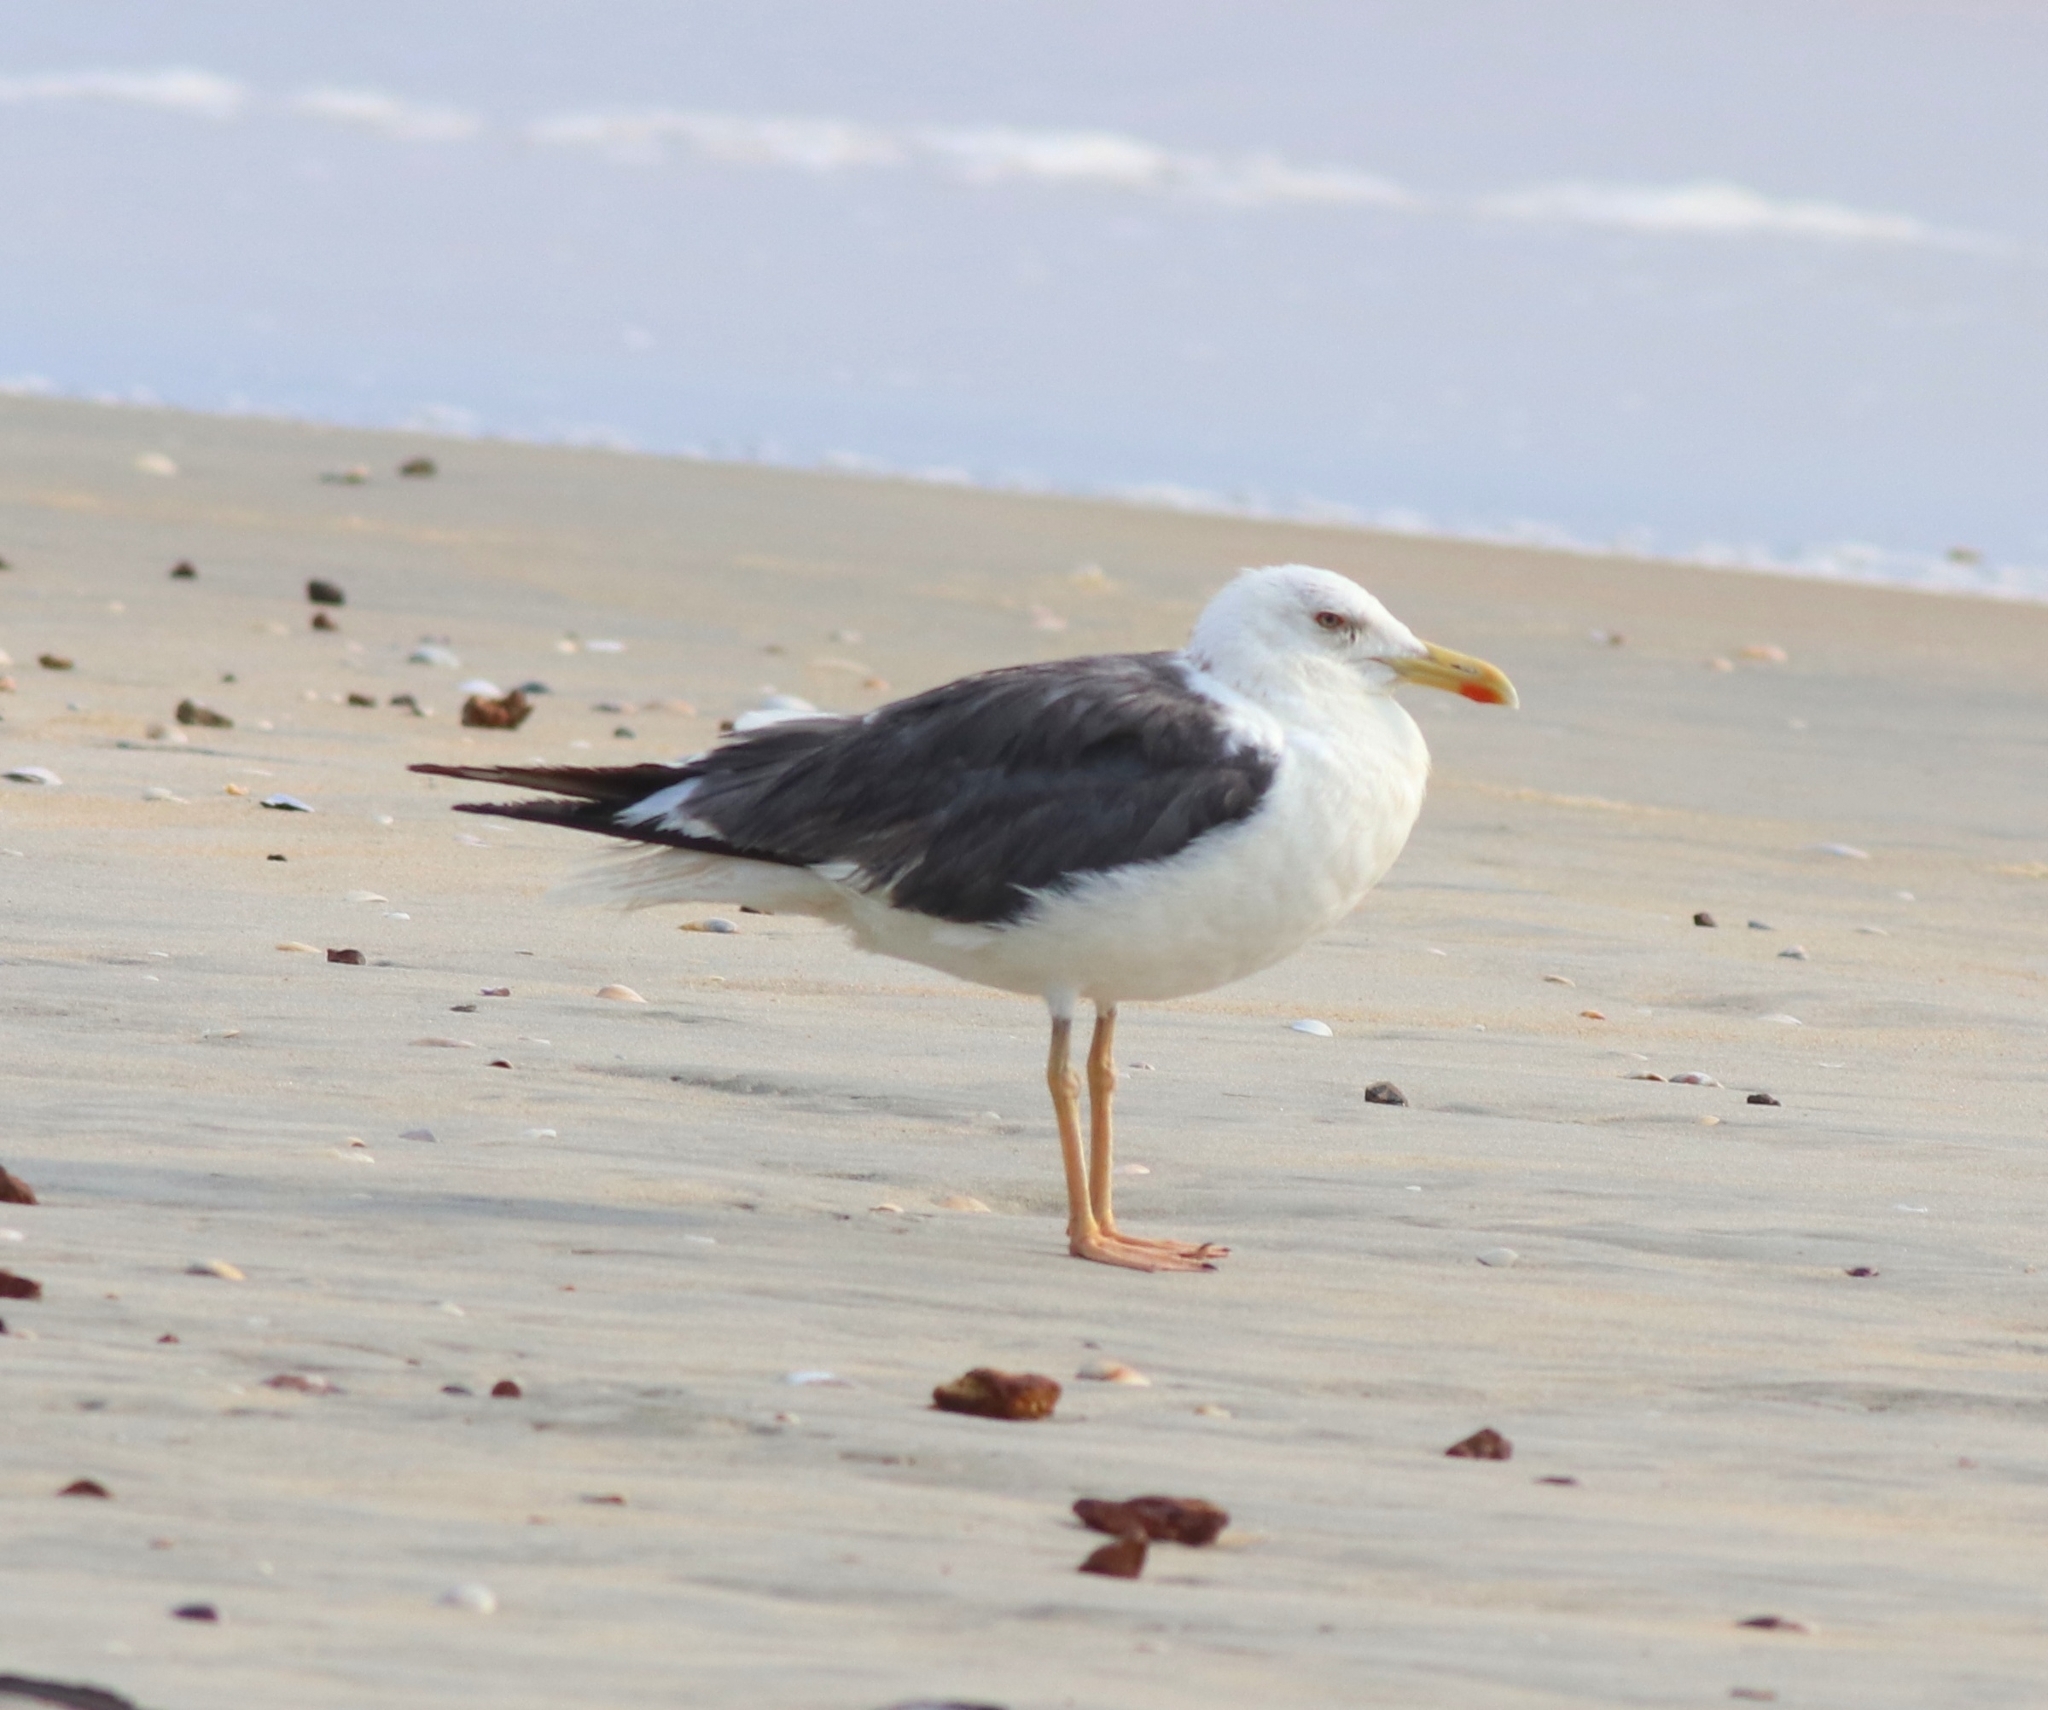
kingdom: Animalia
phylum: Chordata
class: Aves
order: Charadriiformes
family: Laridae
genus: Larus
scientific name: Larus fuscus
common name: Lesser black-backed gull
